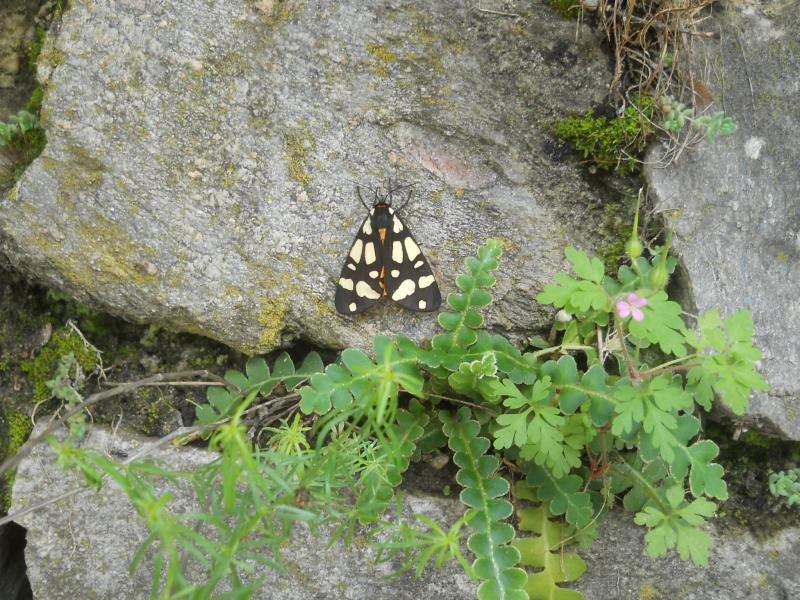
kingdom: Plantae
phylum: Tracheophyta
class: Polypodiopsida
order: Polypodiales
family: Aspleniaceae
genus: Asplenium
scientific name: Asplenium ceterach
